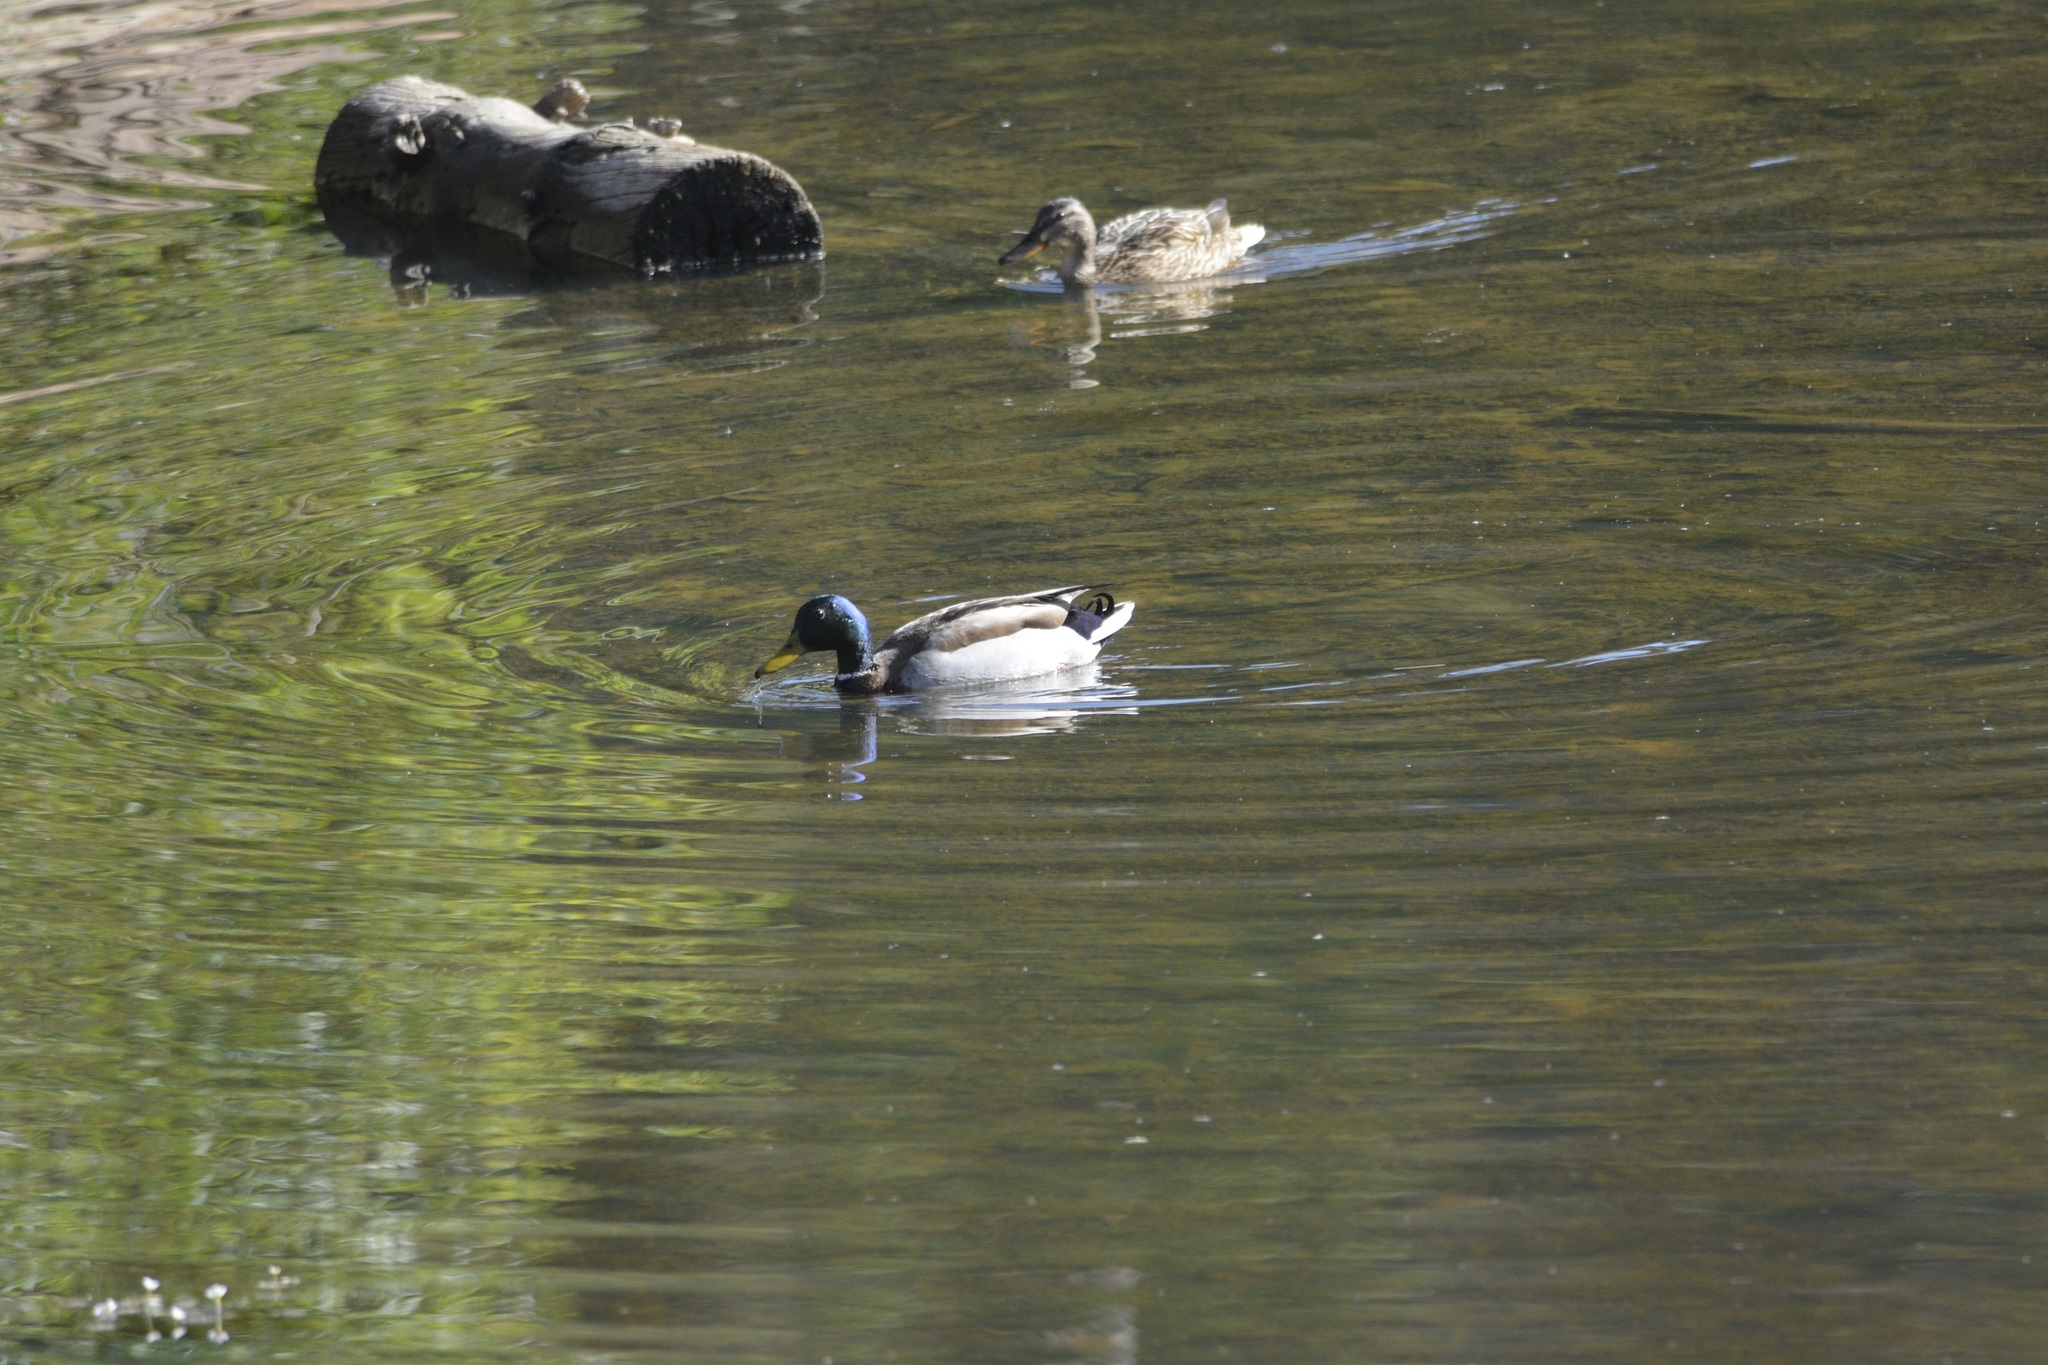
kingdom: Animalia
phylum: Chordata
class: Aves
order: Anseriformes
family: Anatidae
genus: Anas
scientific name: Anas platyrhynchos
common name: Mallard
